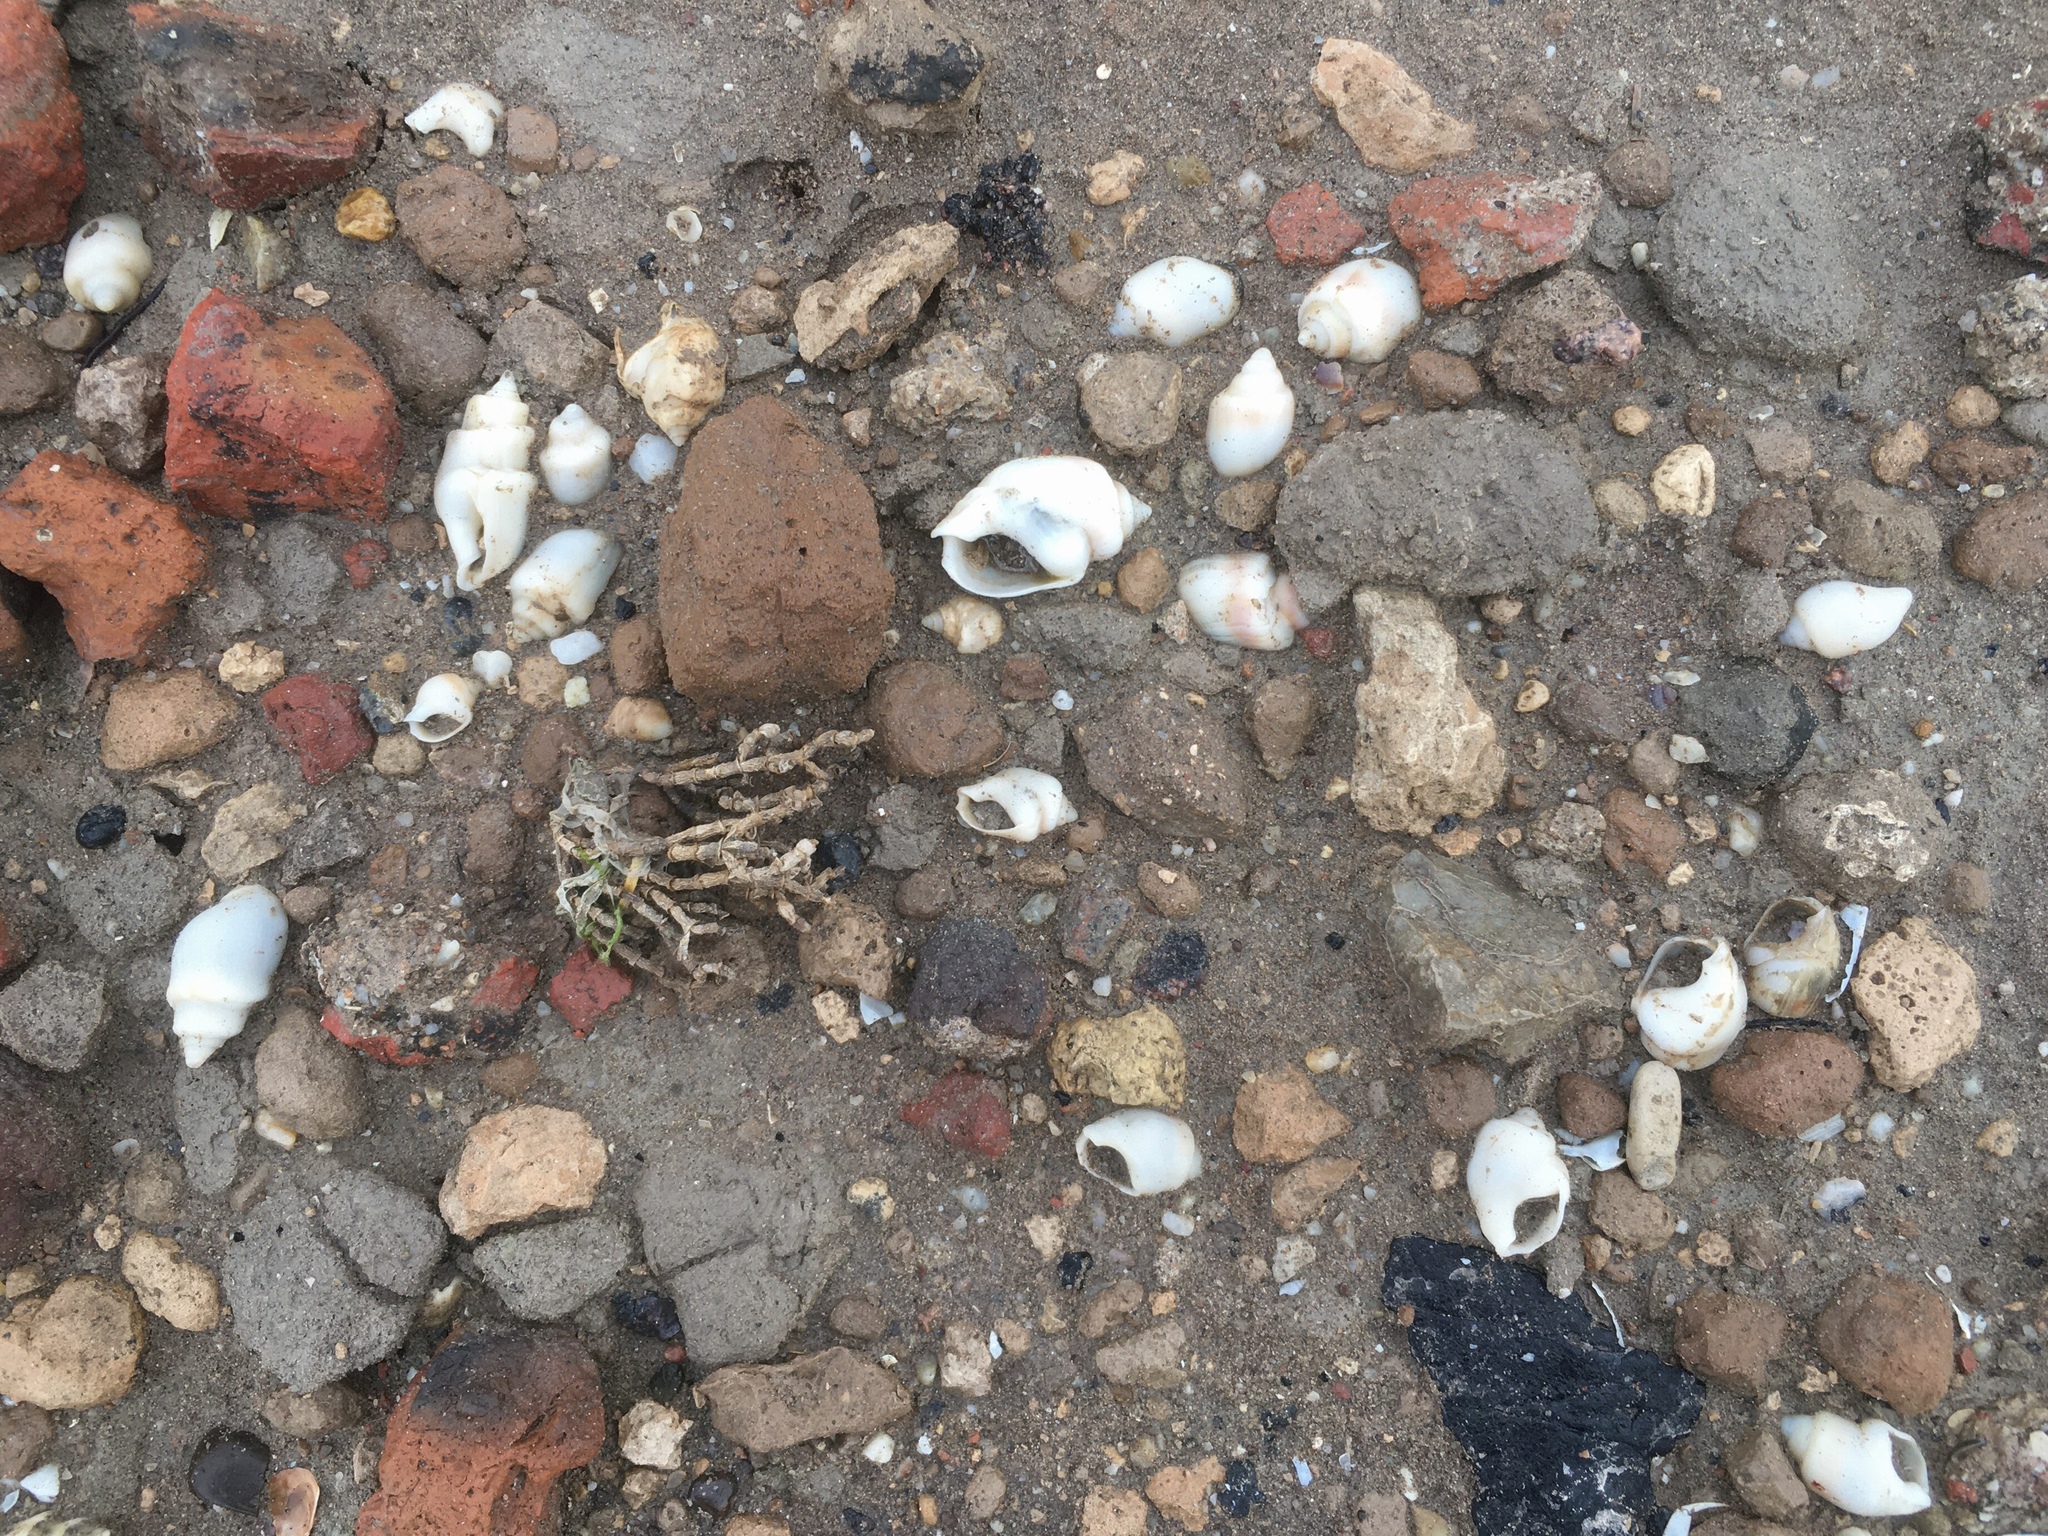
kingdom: Animalia
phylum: Mollusca
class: Gastropoda
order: Neogastropoda
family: Buccinanopsidae
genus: Buccinastrum
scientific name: Buccinastrum deforme
